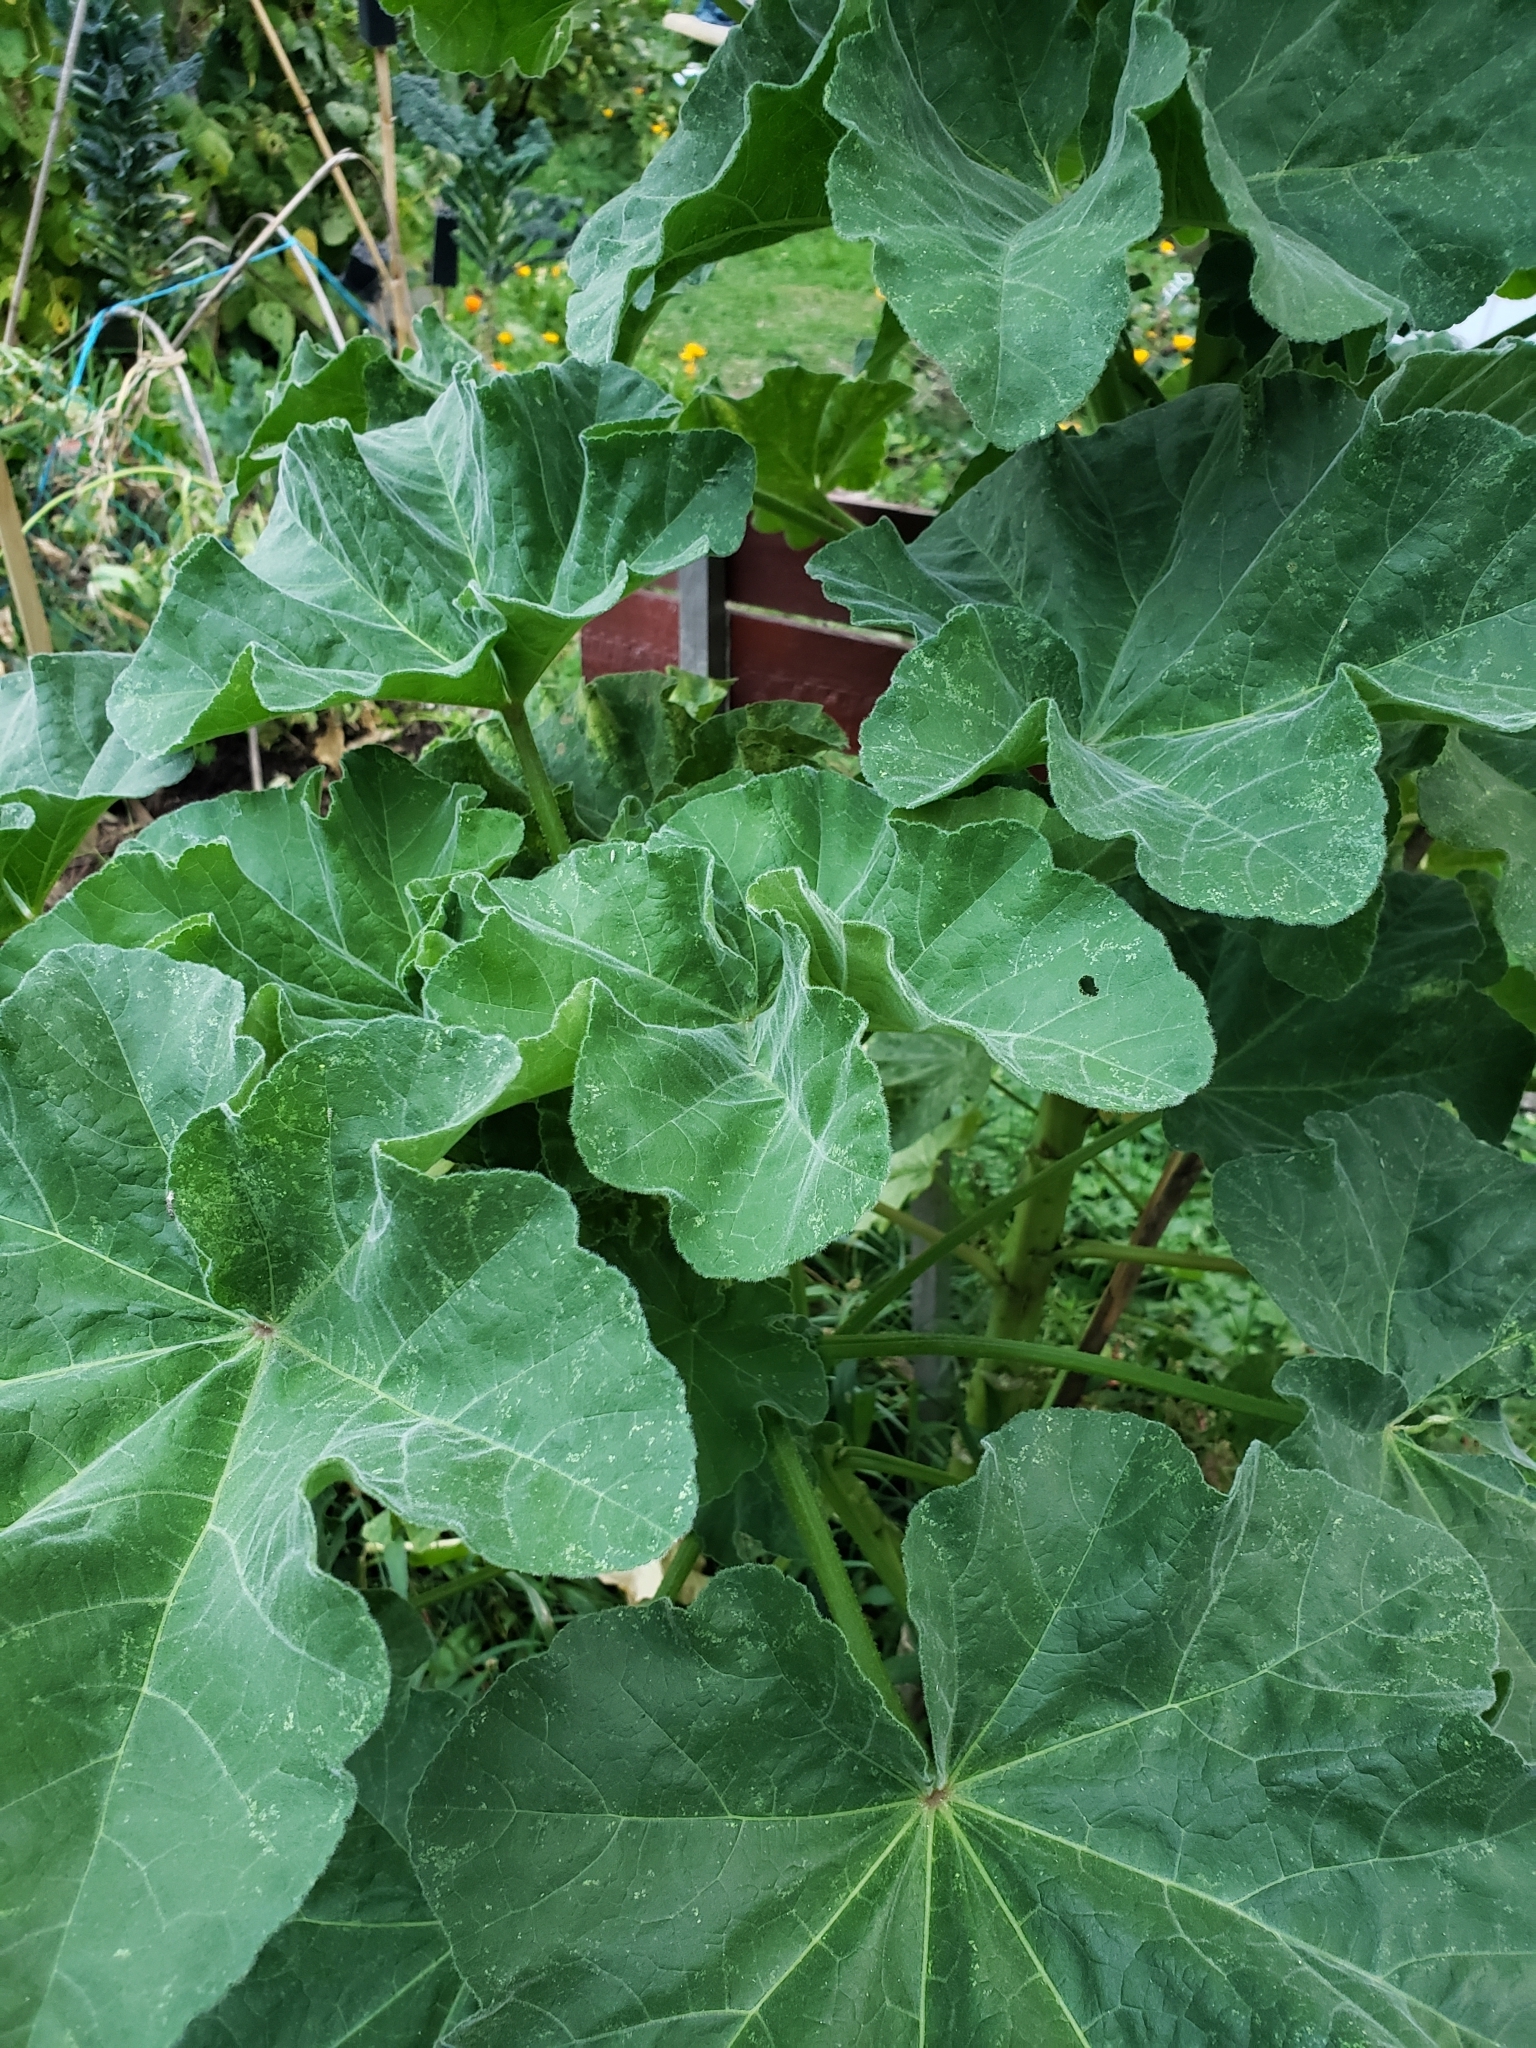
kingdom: Plantae
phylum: Tracheophyta
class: Magnoliopsida
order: Malvales
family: Malvaceae
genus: Malva
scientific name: Malva arborea
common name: Tree mallow
